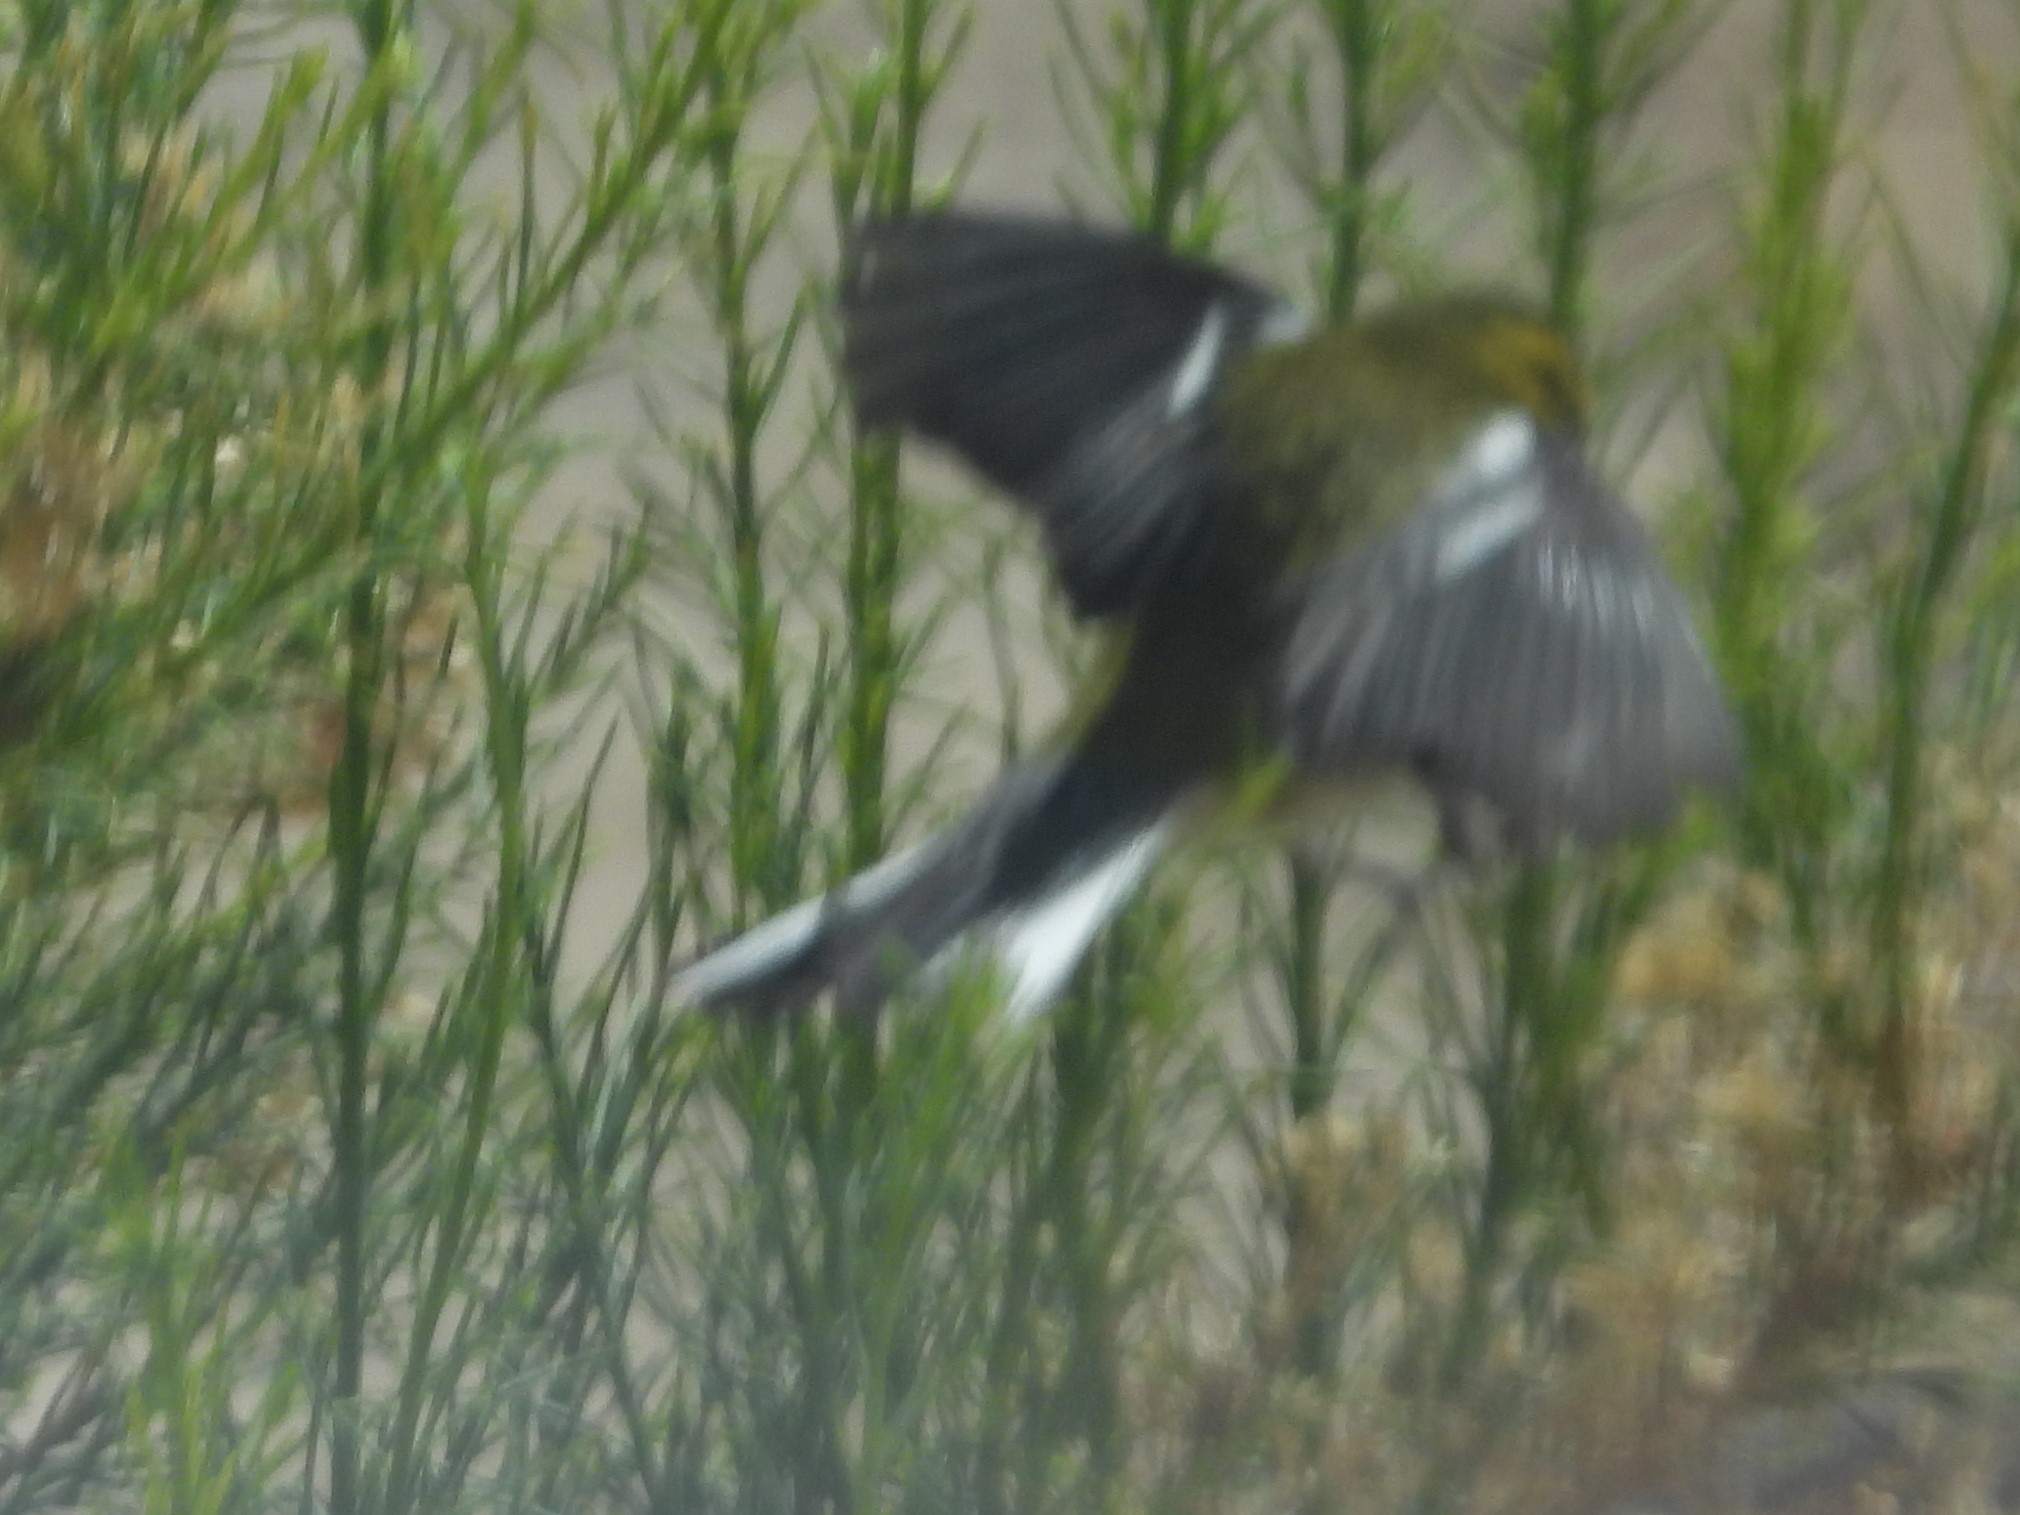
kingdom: Animalia
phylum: Chordata
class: Aves
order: Passeriformes
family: Parulidae
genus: Setophaga
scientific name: Setophaga townsendi
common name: Townsend's warbler
